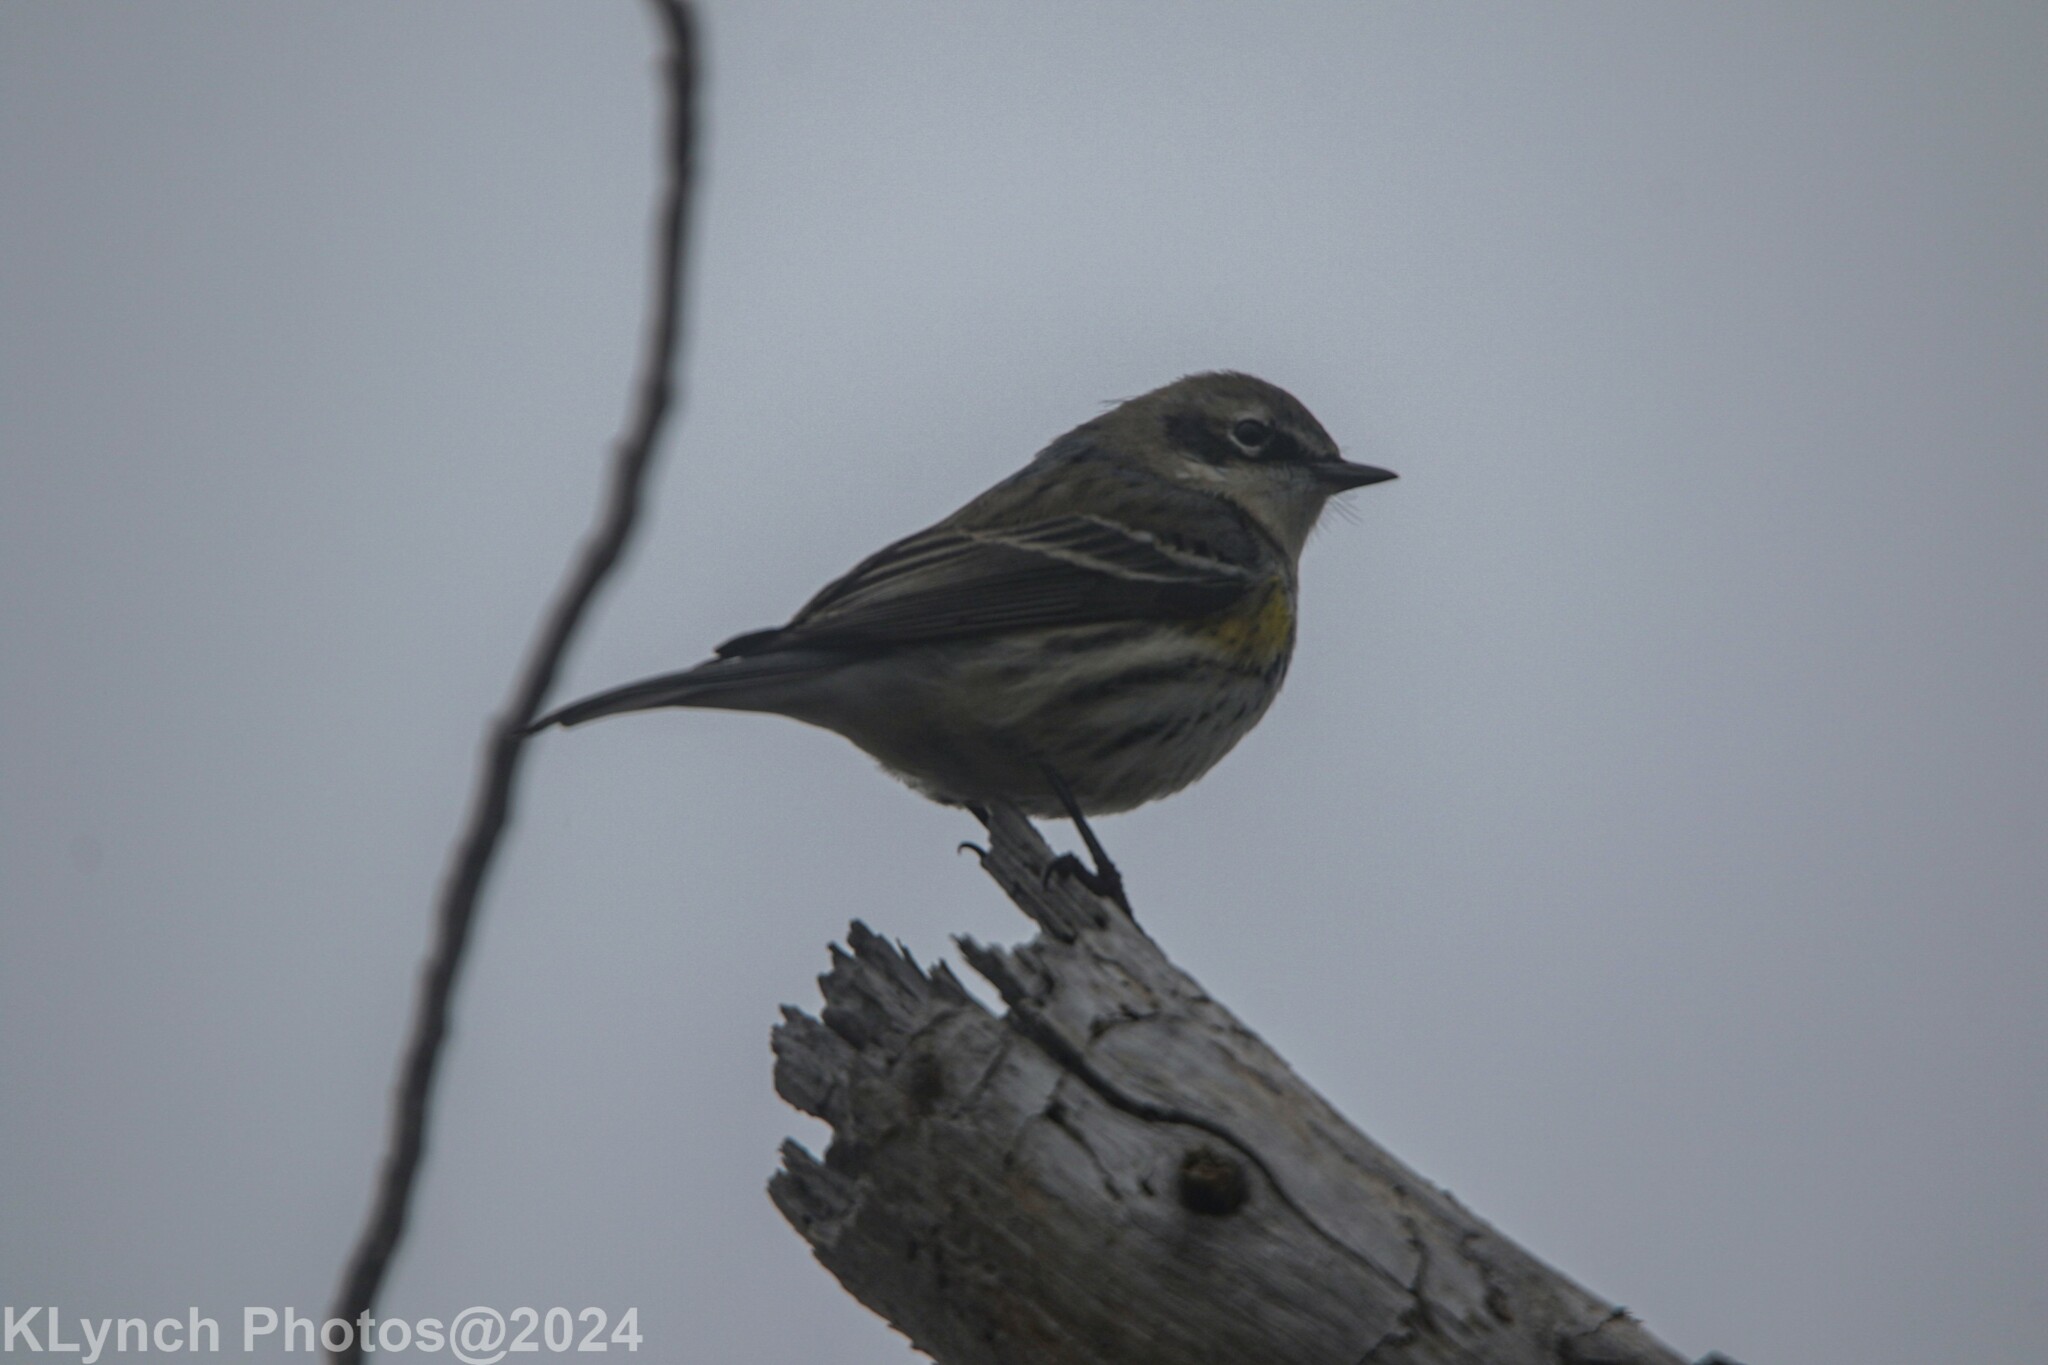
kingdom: Animalia
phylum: Chordata
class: Aves
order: Passeriformes
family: Parulidae
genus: Setophaga
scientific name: Setophaga coronata
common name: Myrtle warbler
